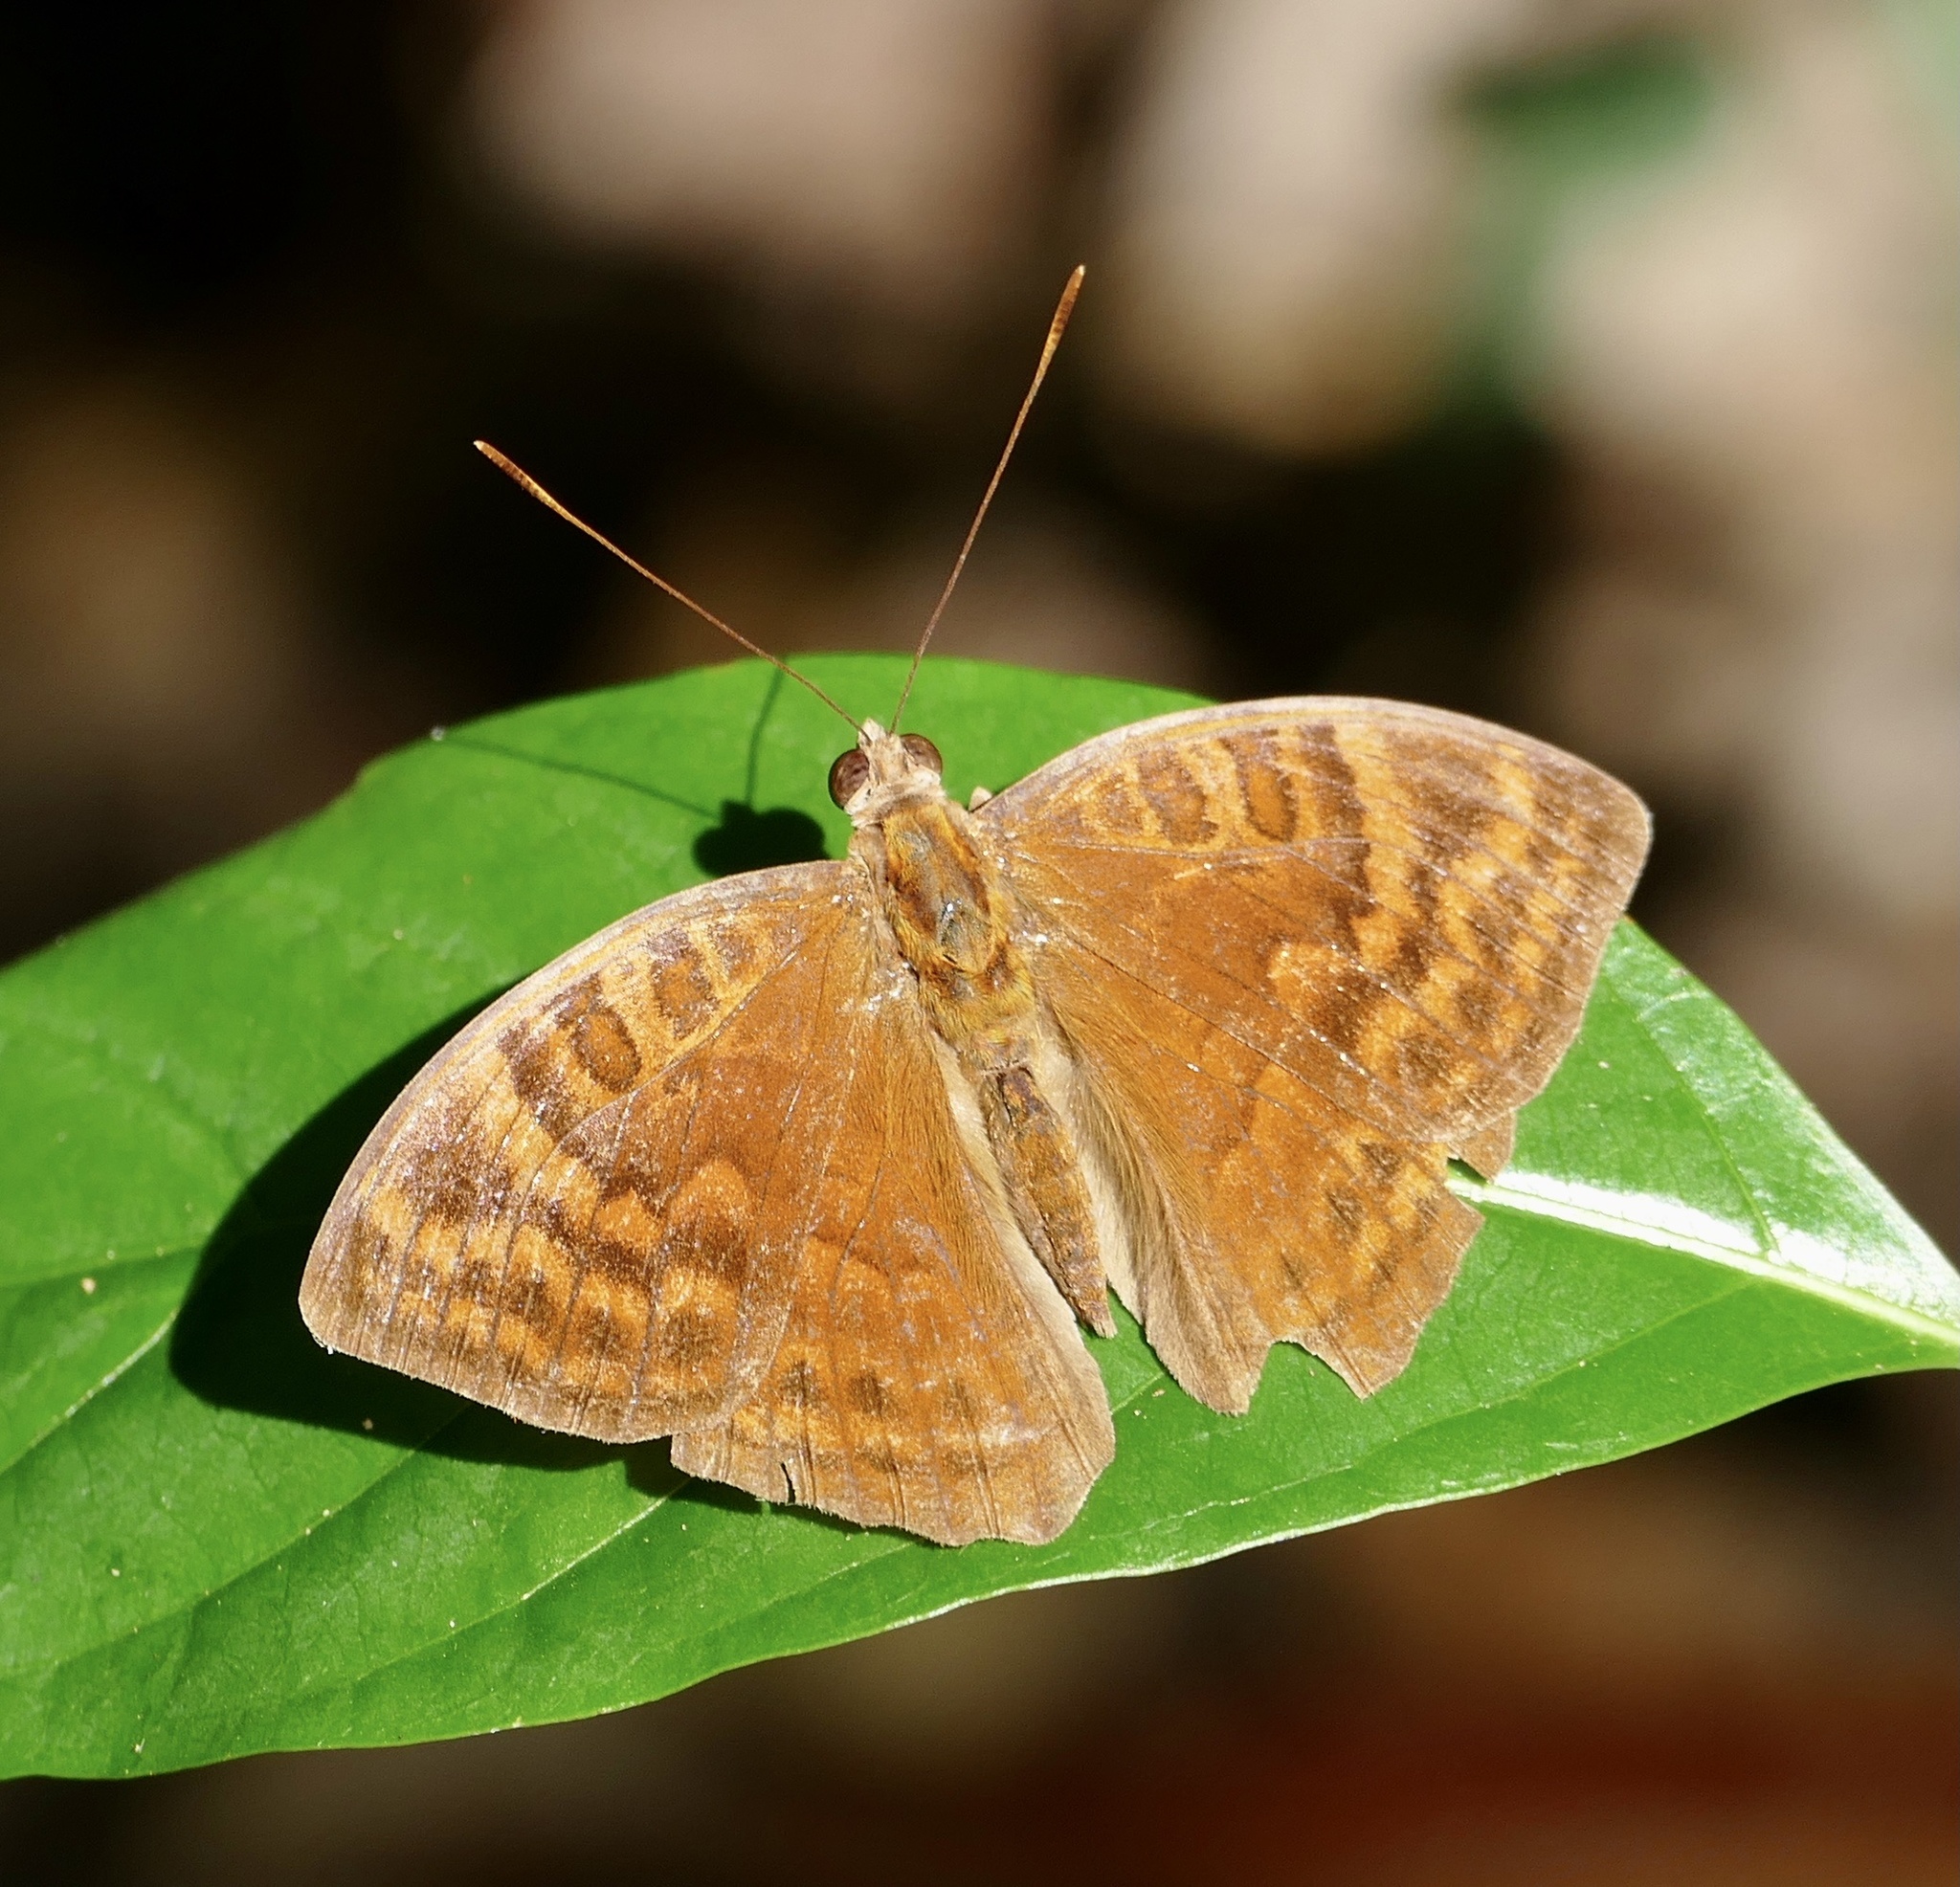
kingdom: Animalia
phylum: Arthropoda
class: Insecta
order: Lepidoptera
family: Nymphalidae
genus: Euriphene
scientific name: Euriphene ampedusa
